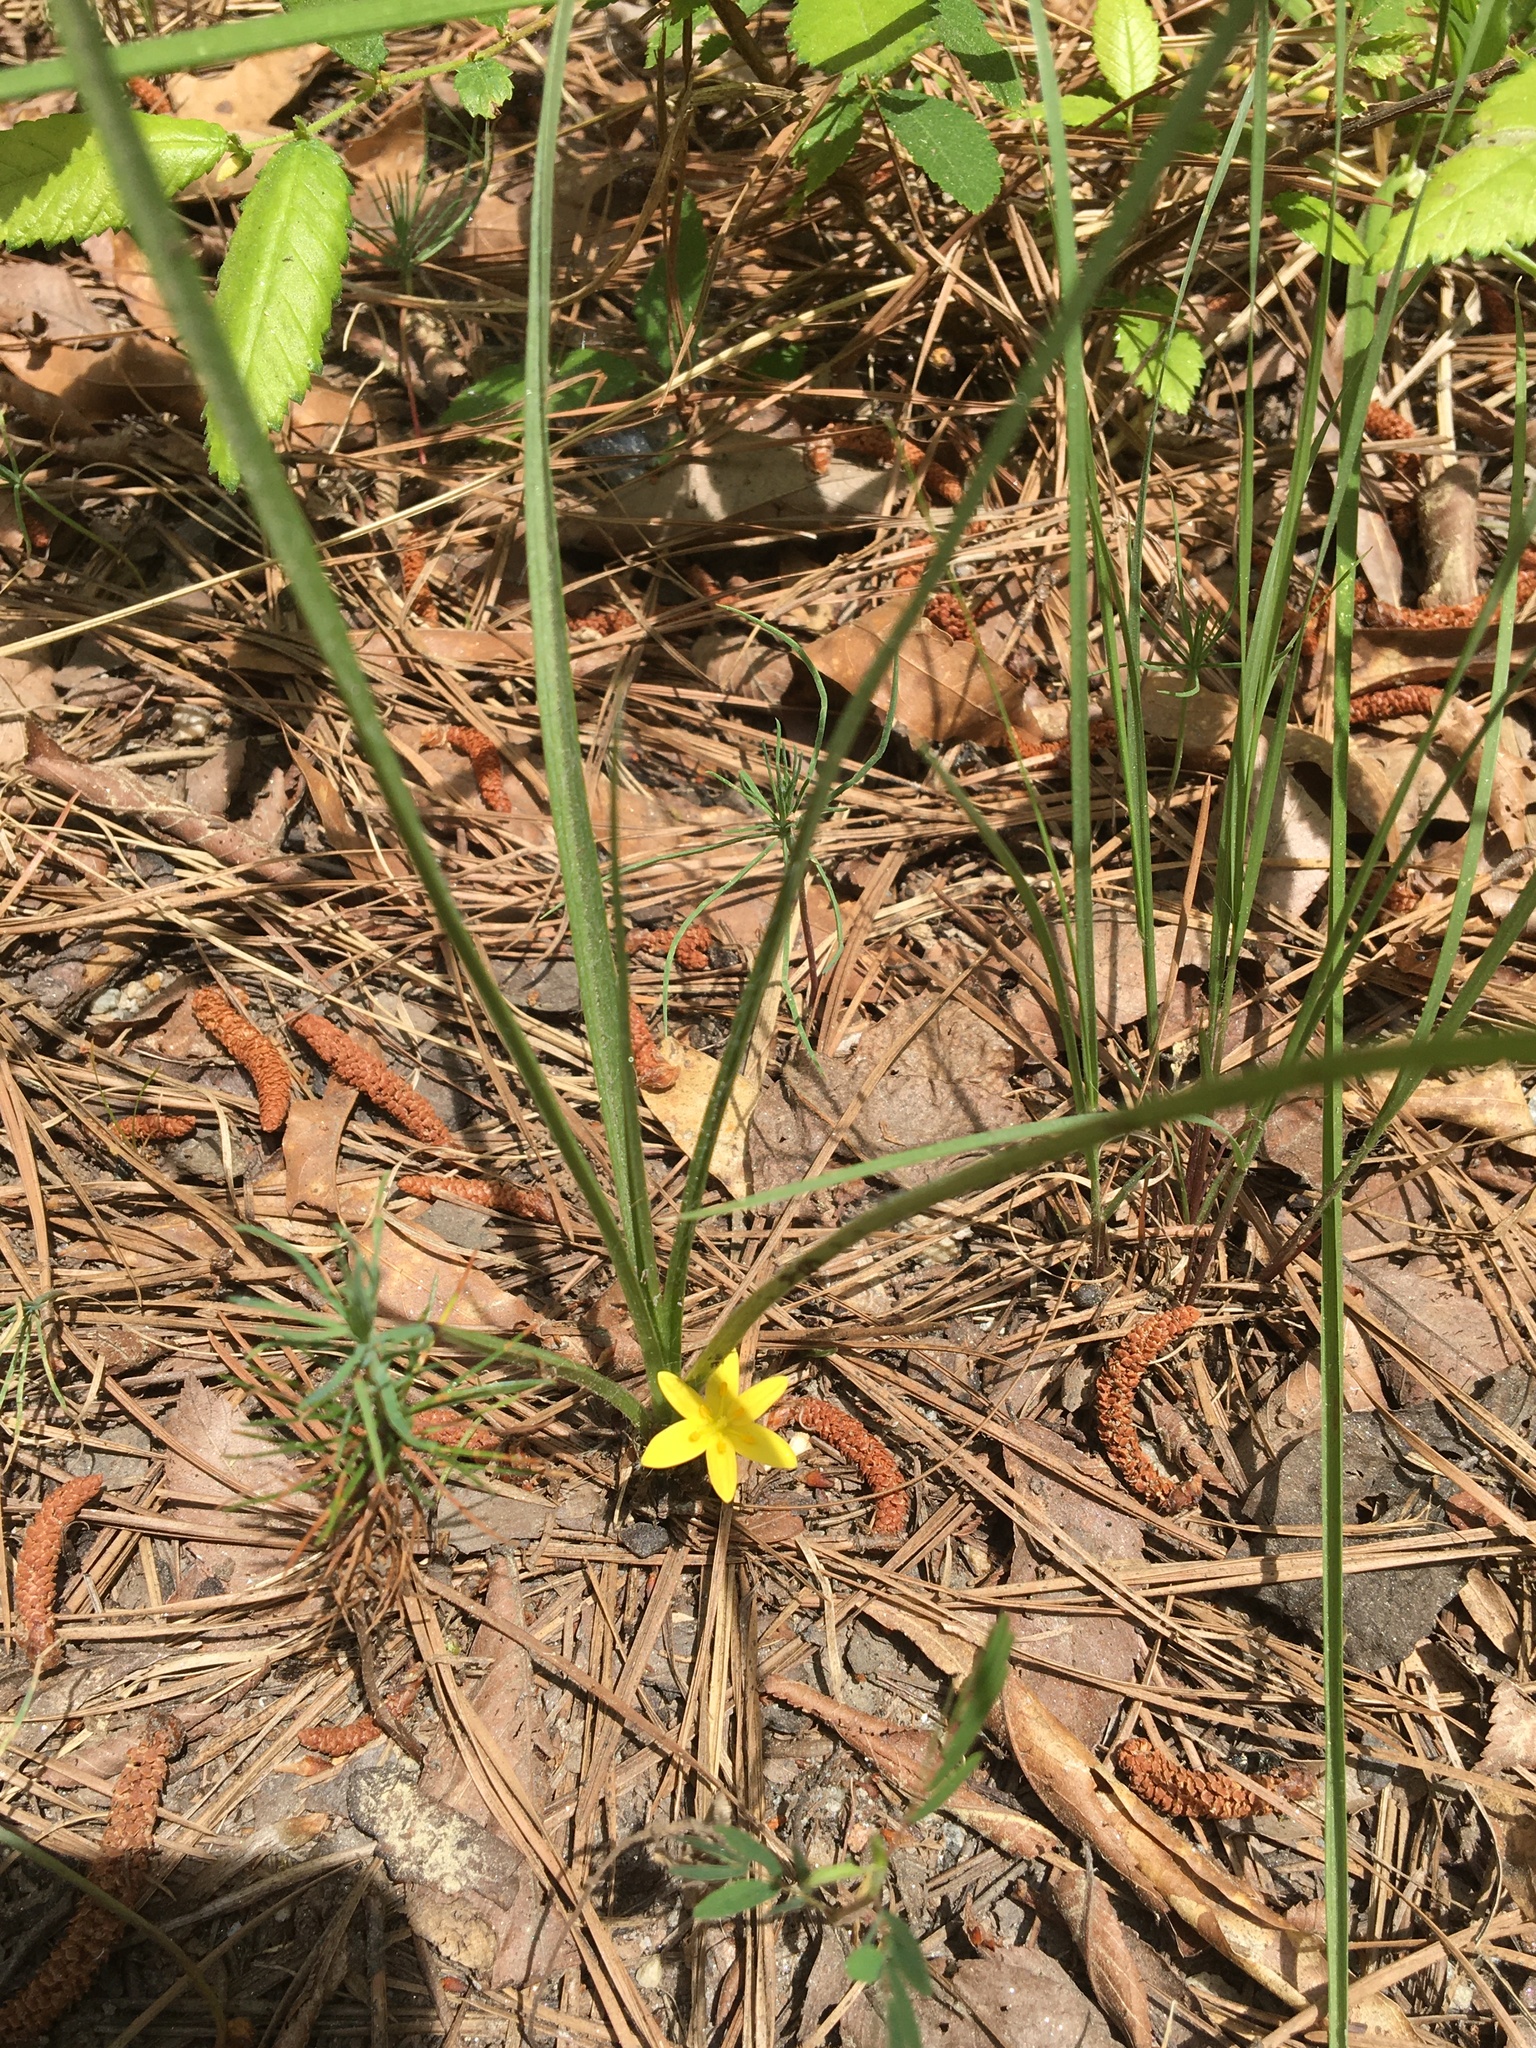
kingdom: Plantae
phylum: Tracheophyta
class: Liliopsida
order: Asparagales
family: Hypoxidaceae
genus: Hypoxis
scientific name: Hypoxis hirsuta
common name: Common goldstar
